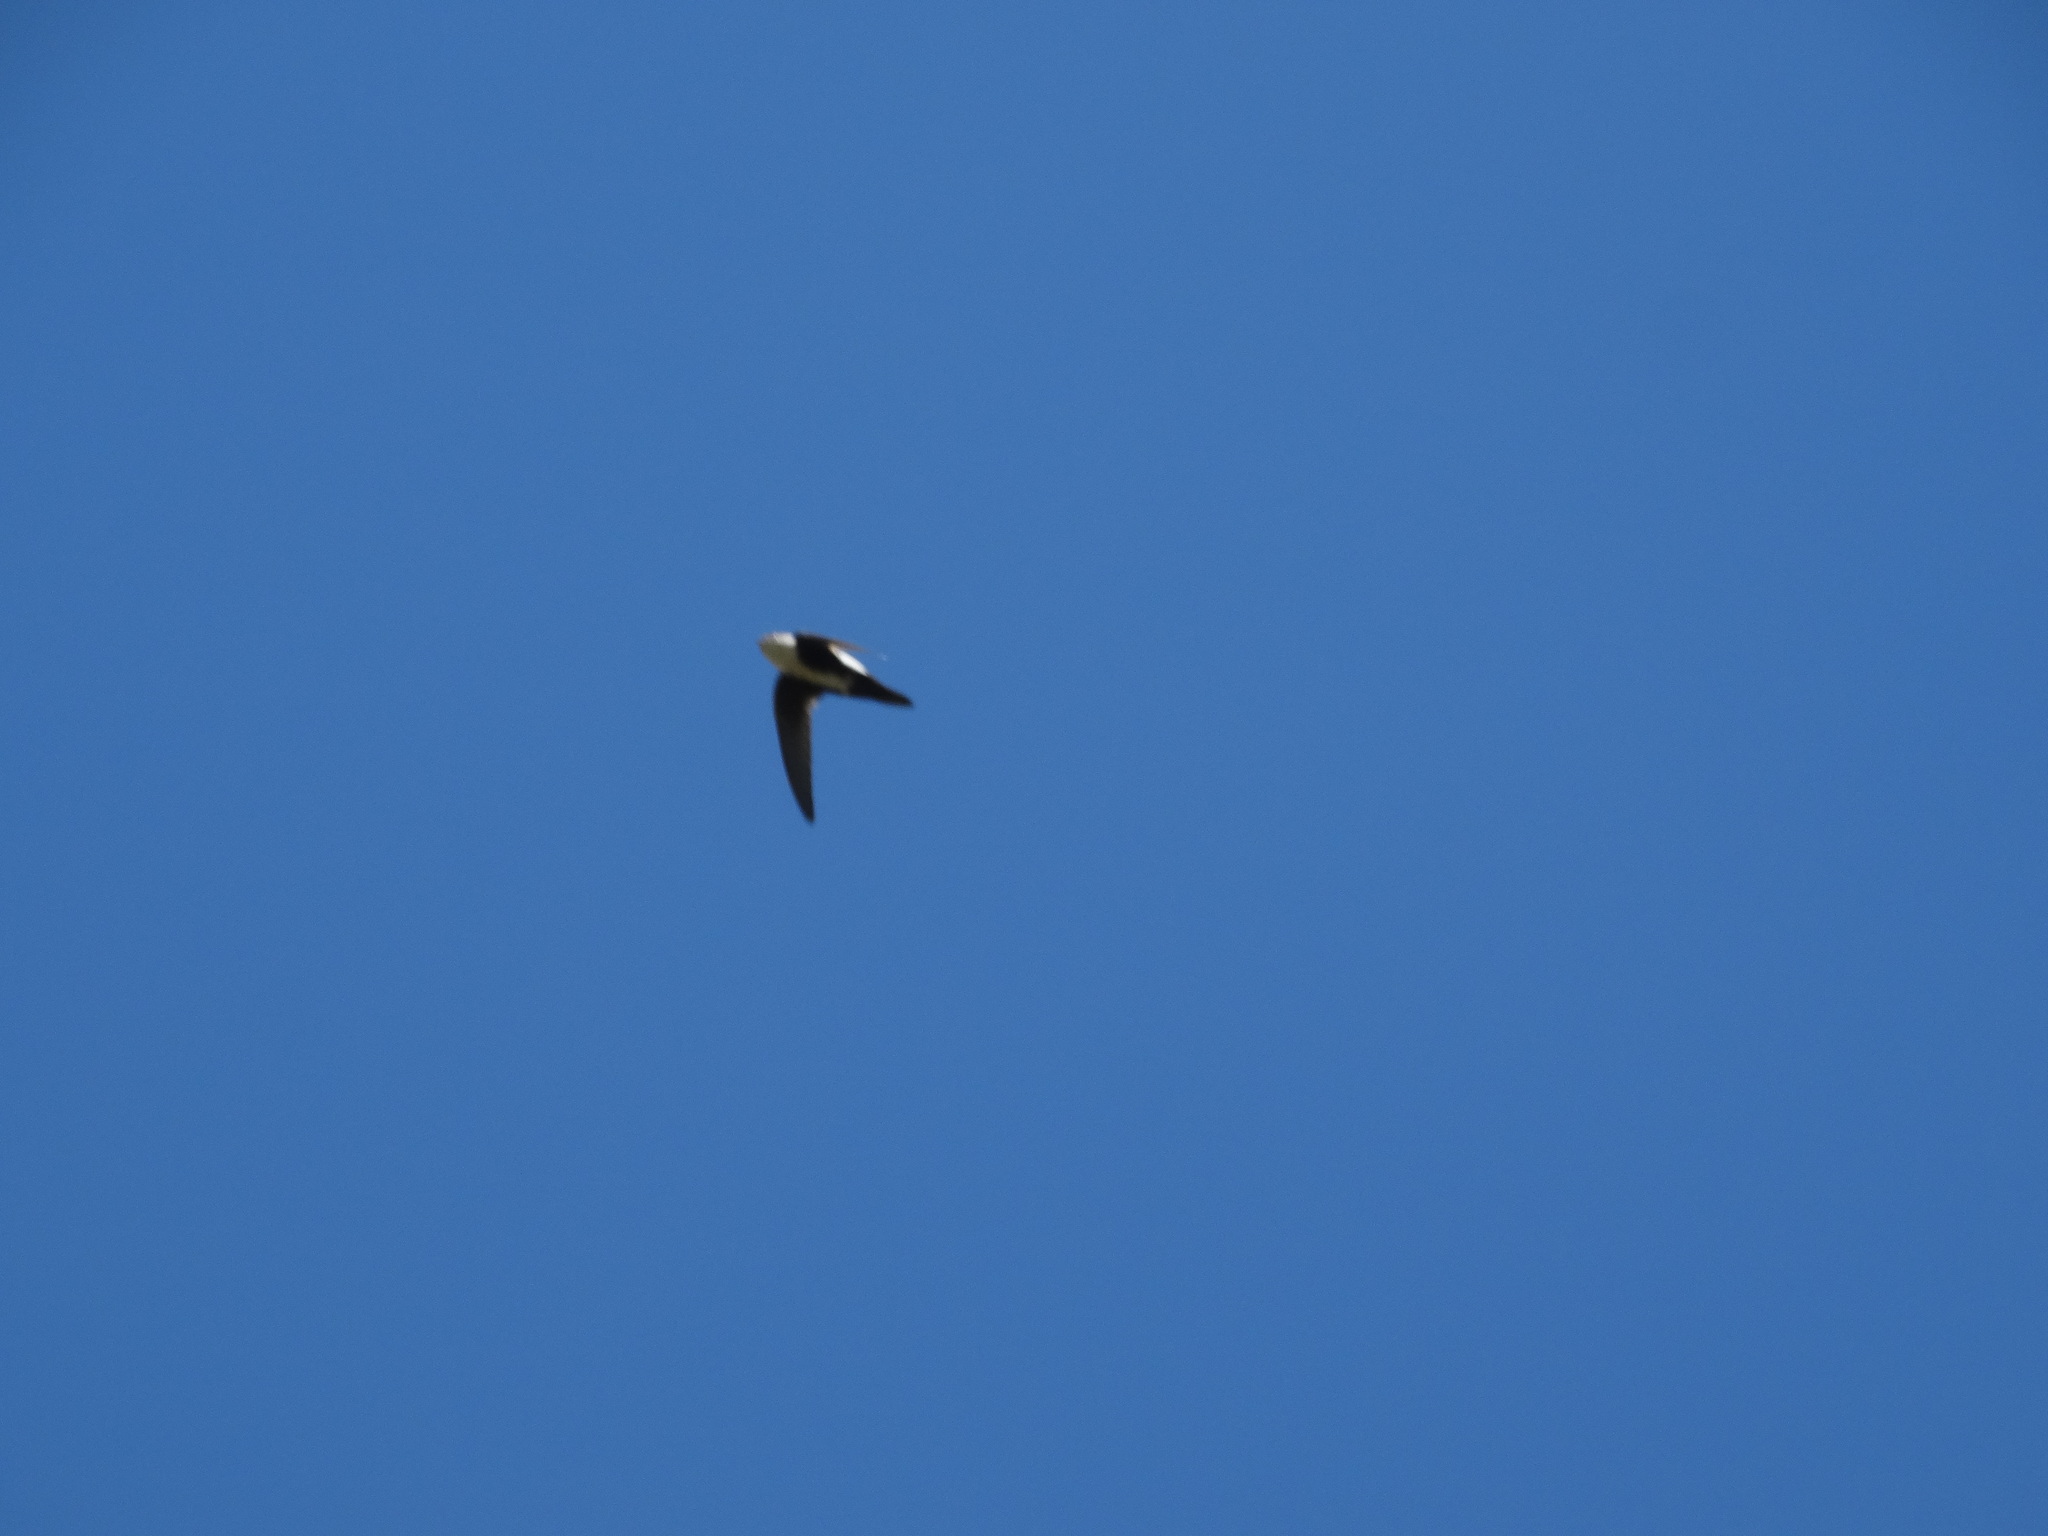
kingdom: Animalia
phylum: Chordata
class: Aves
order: Apodiformes
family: Apodidae
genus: Aeronautes
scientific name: Aeronautes saxatalis
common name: White-throated swift
